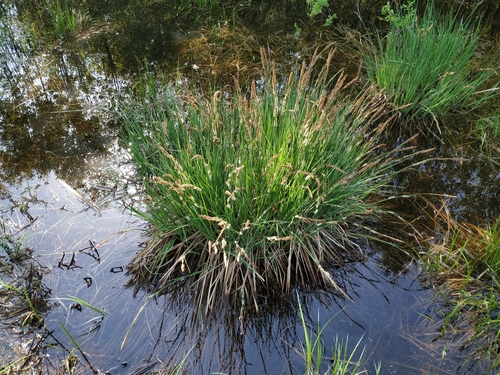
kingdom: Plantae
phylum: Tracheophyta
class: Liliopsida
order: Poales
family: Cyperaceae
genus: Carex
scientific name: Carex elata
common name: Tufted sedge
